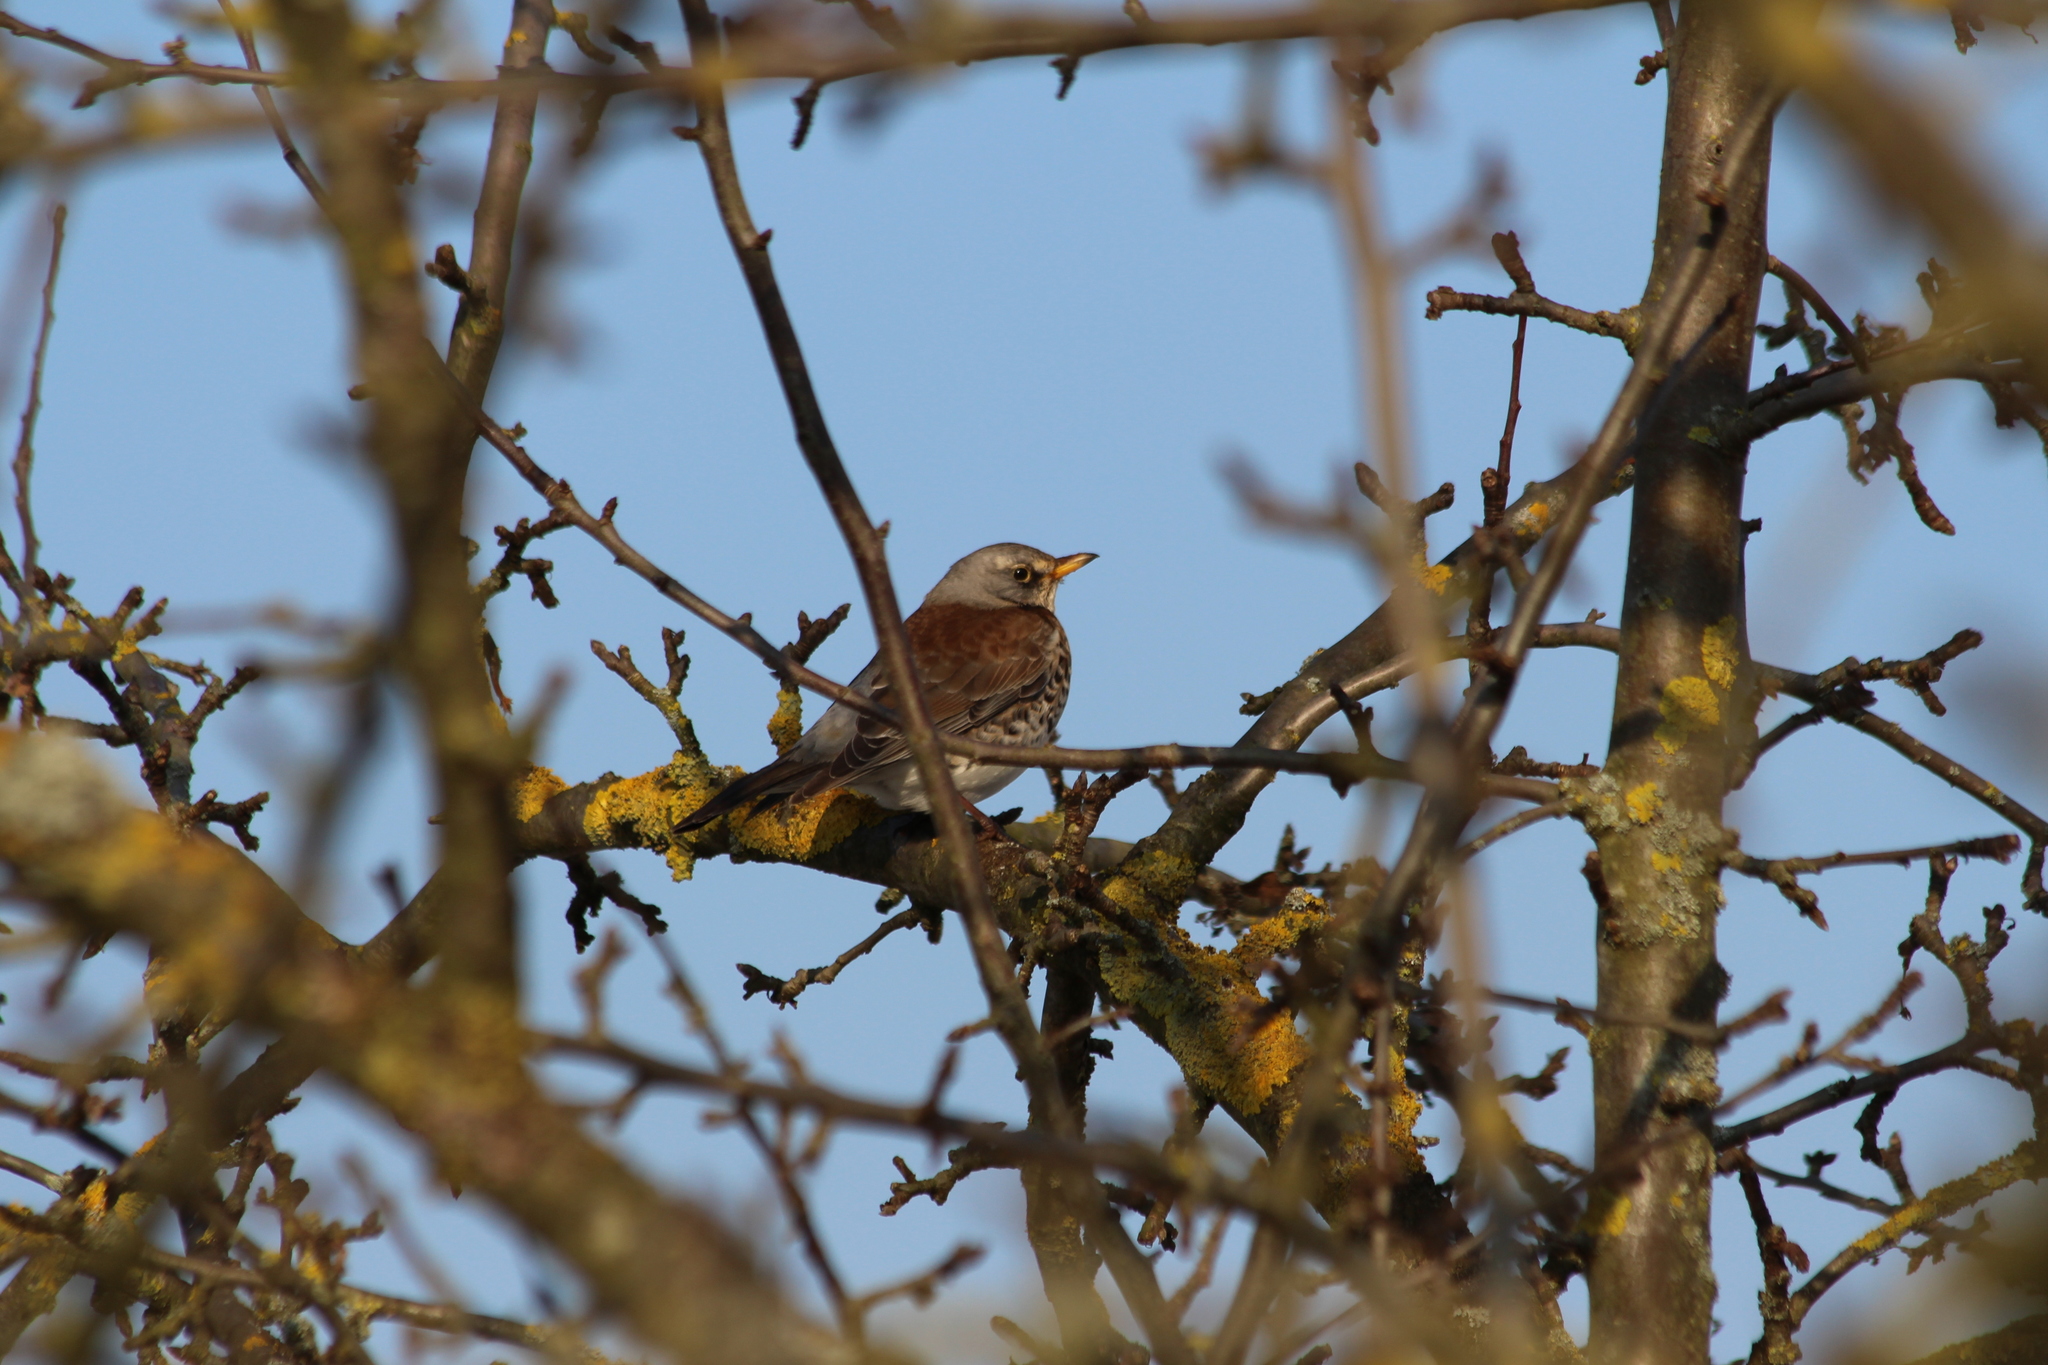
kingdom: Animalia
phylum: Chordata
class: Aves
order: Passeriformes
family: Turdidae
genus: Turdus
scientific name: Turdus pilaris
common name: Fieldfare
